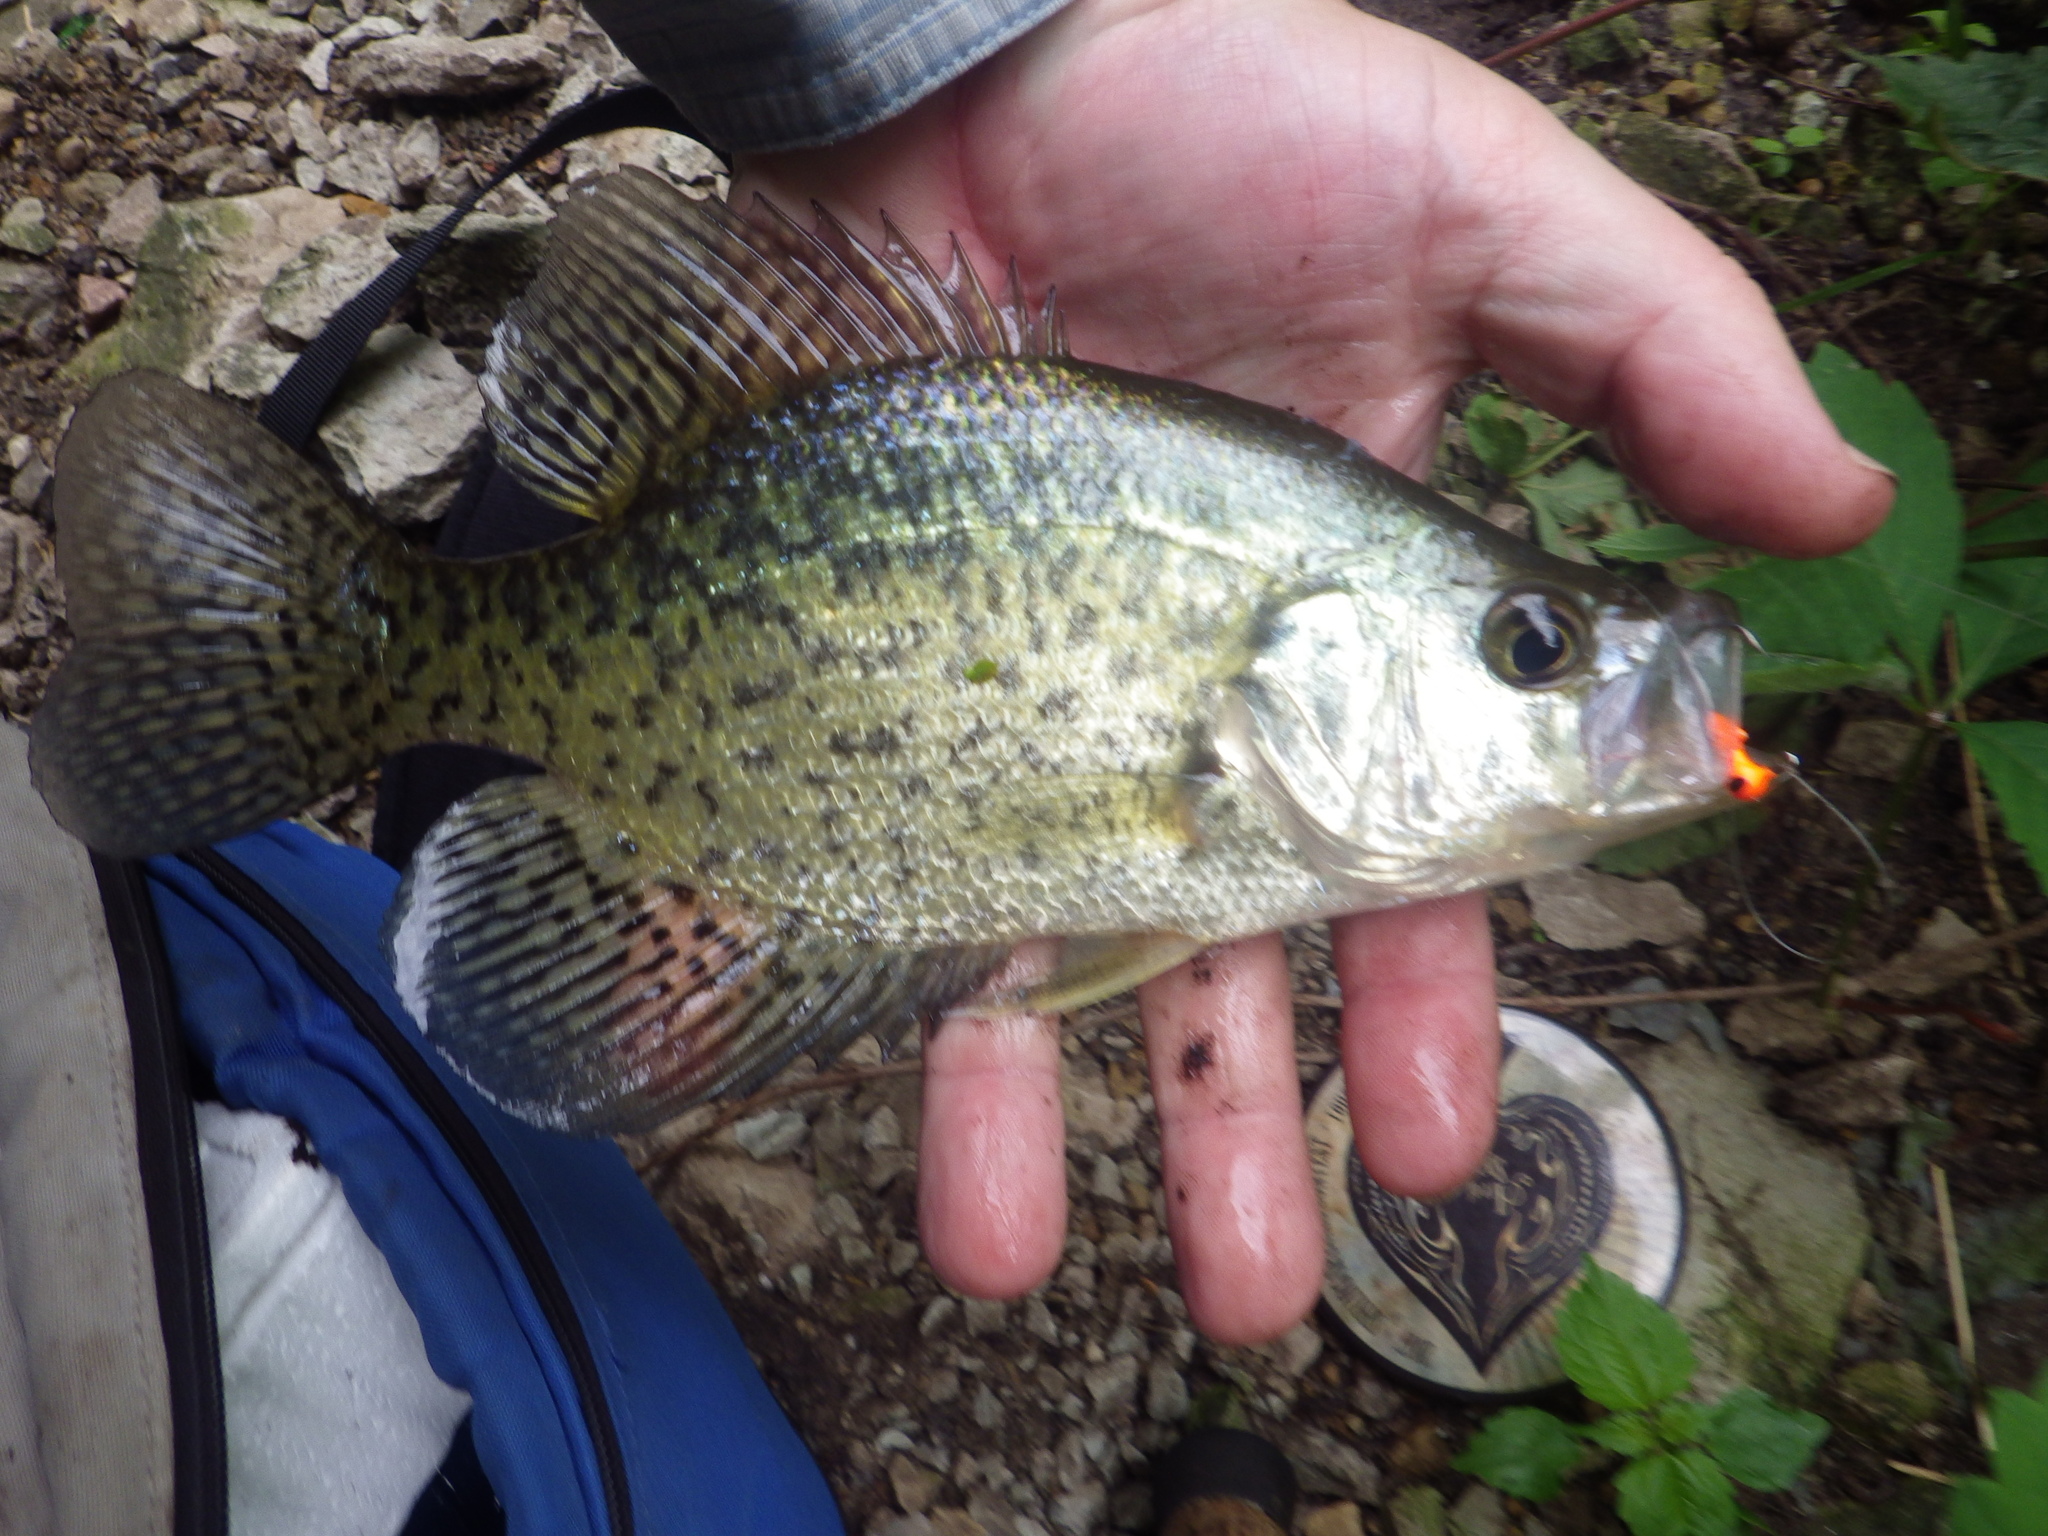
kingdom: Animalia
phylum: Chordata
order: Perciformes
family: Centrarchidae
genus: Pomoxis
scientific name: Pomoxis nigromaculatus
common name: Black crappie
